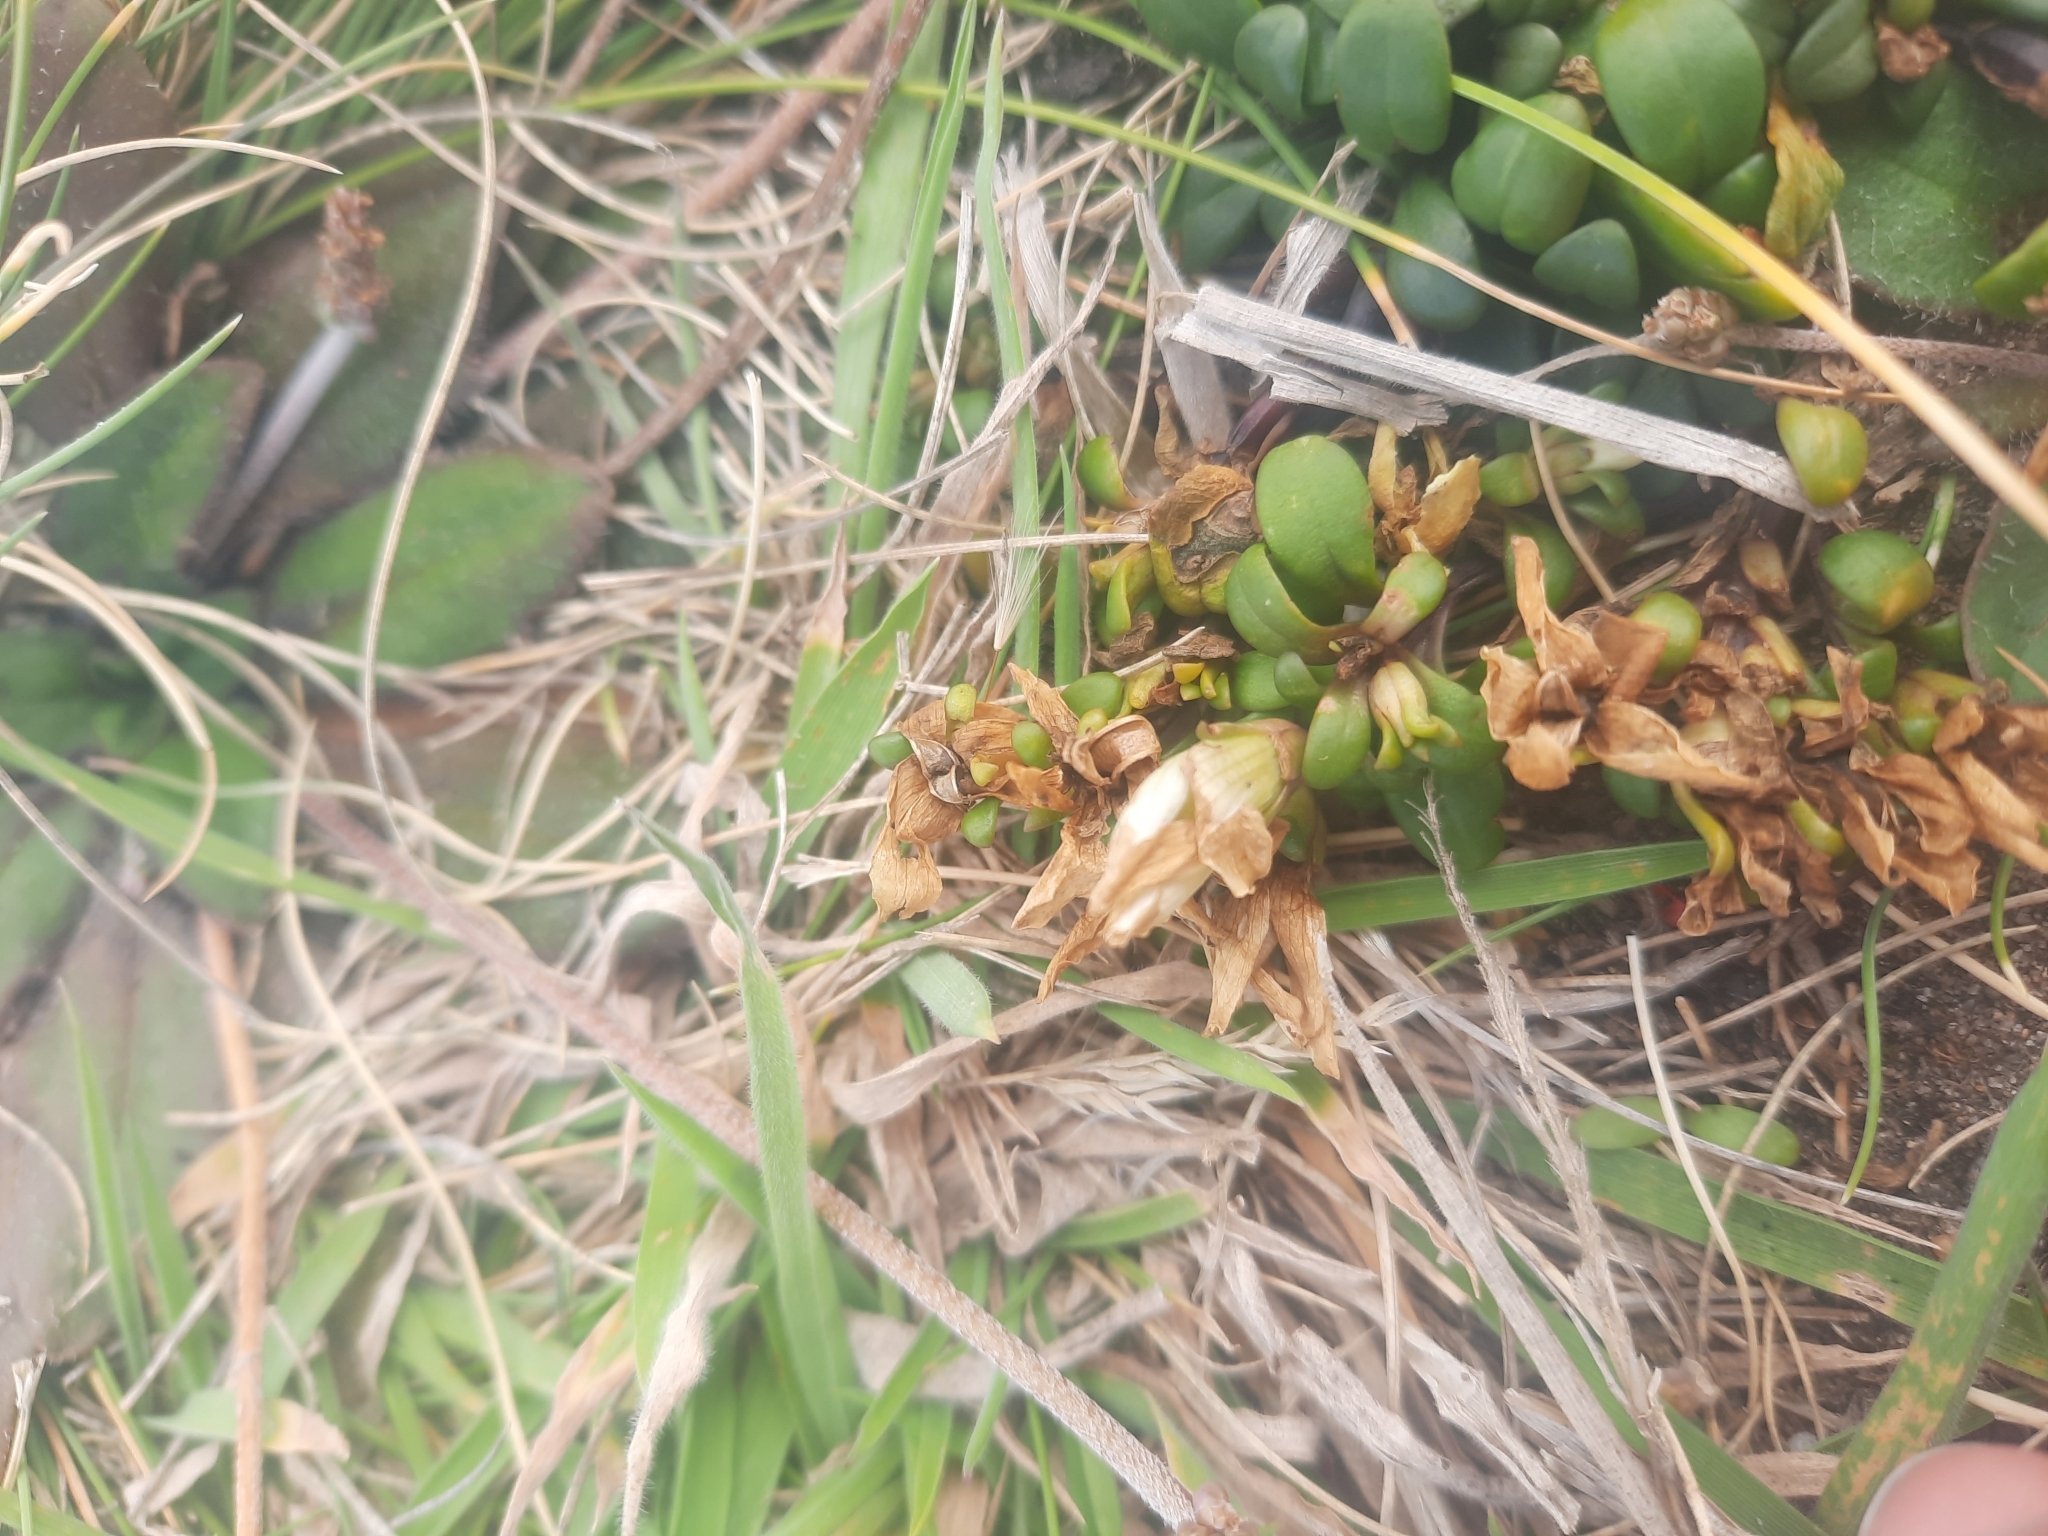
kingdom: Plantae
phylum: Tracheophyta
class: Magnoliopsida
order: Gentianales
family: Gentianaceae
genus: Gentianella
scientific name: Gentianella saxosa
